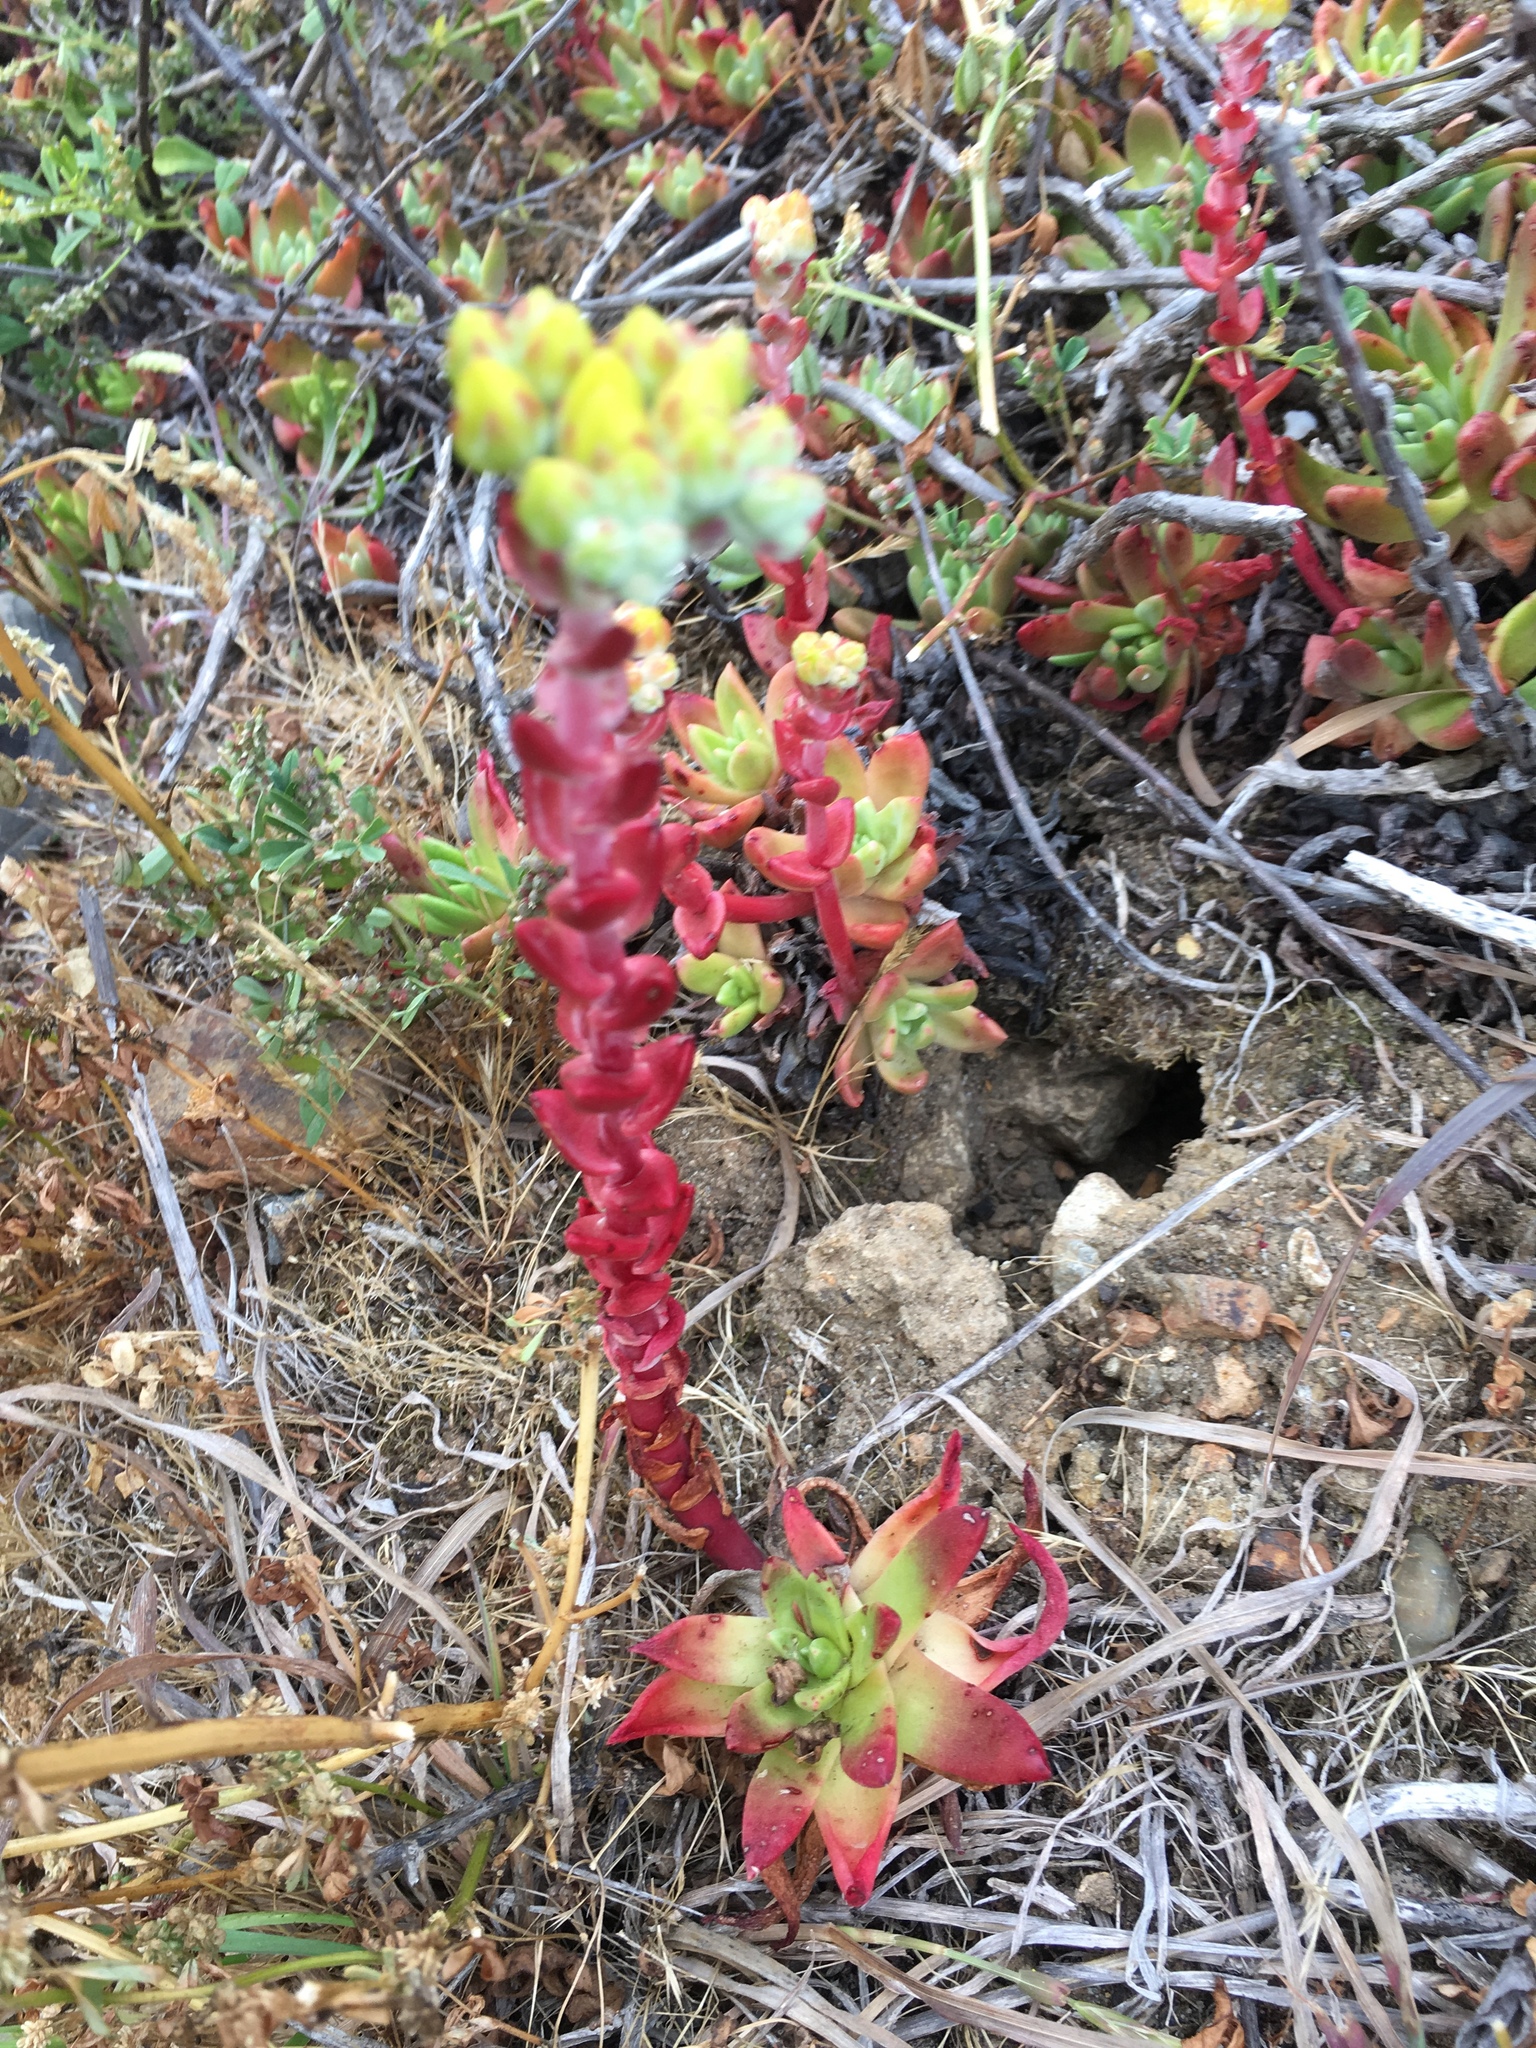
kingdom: Plantae
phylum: Tracheophyta
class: Magnoliopsida
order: Saxifragales
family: Crassulaceae
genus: Dudleya
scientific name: Dudleya farinosa
